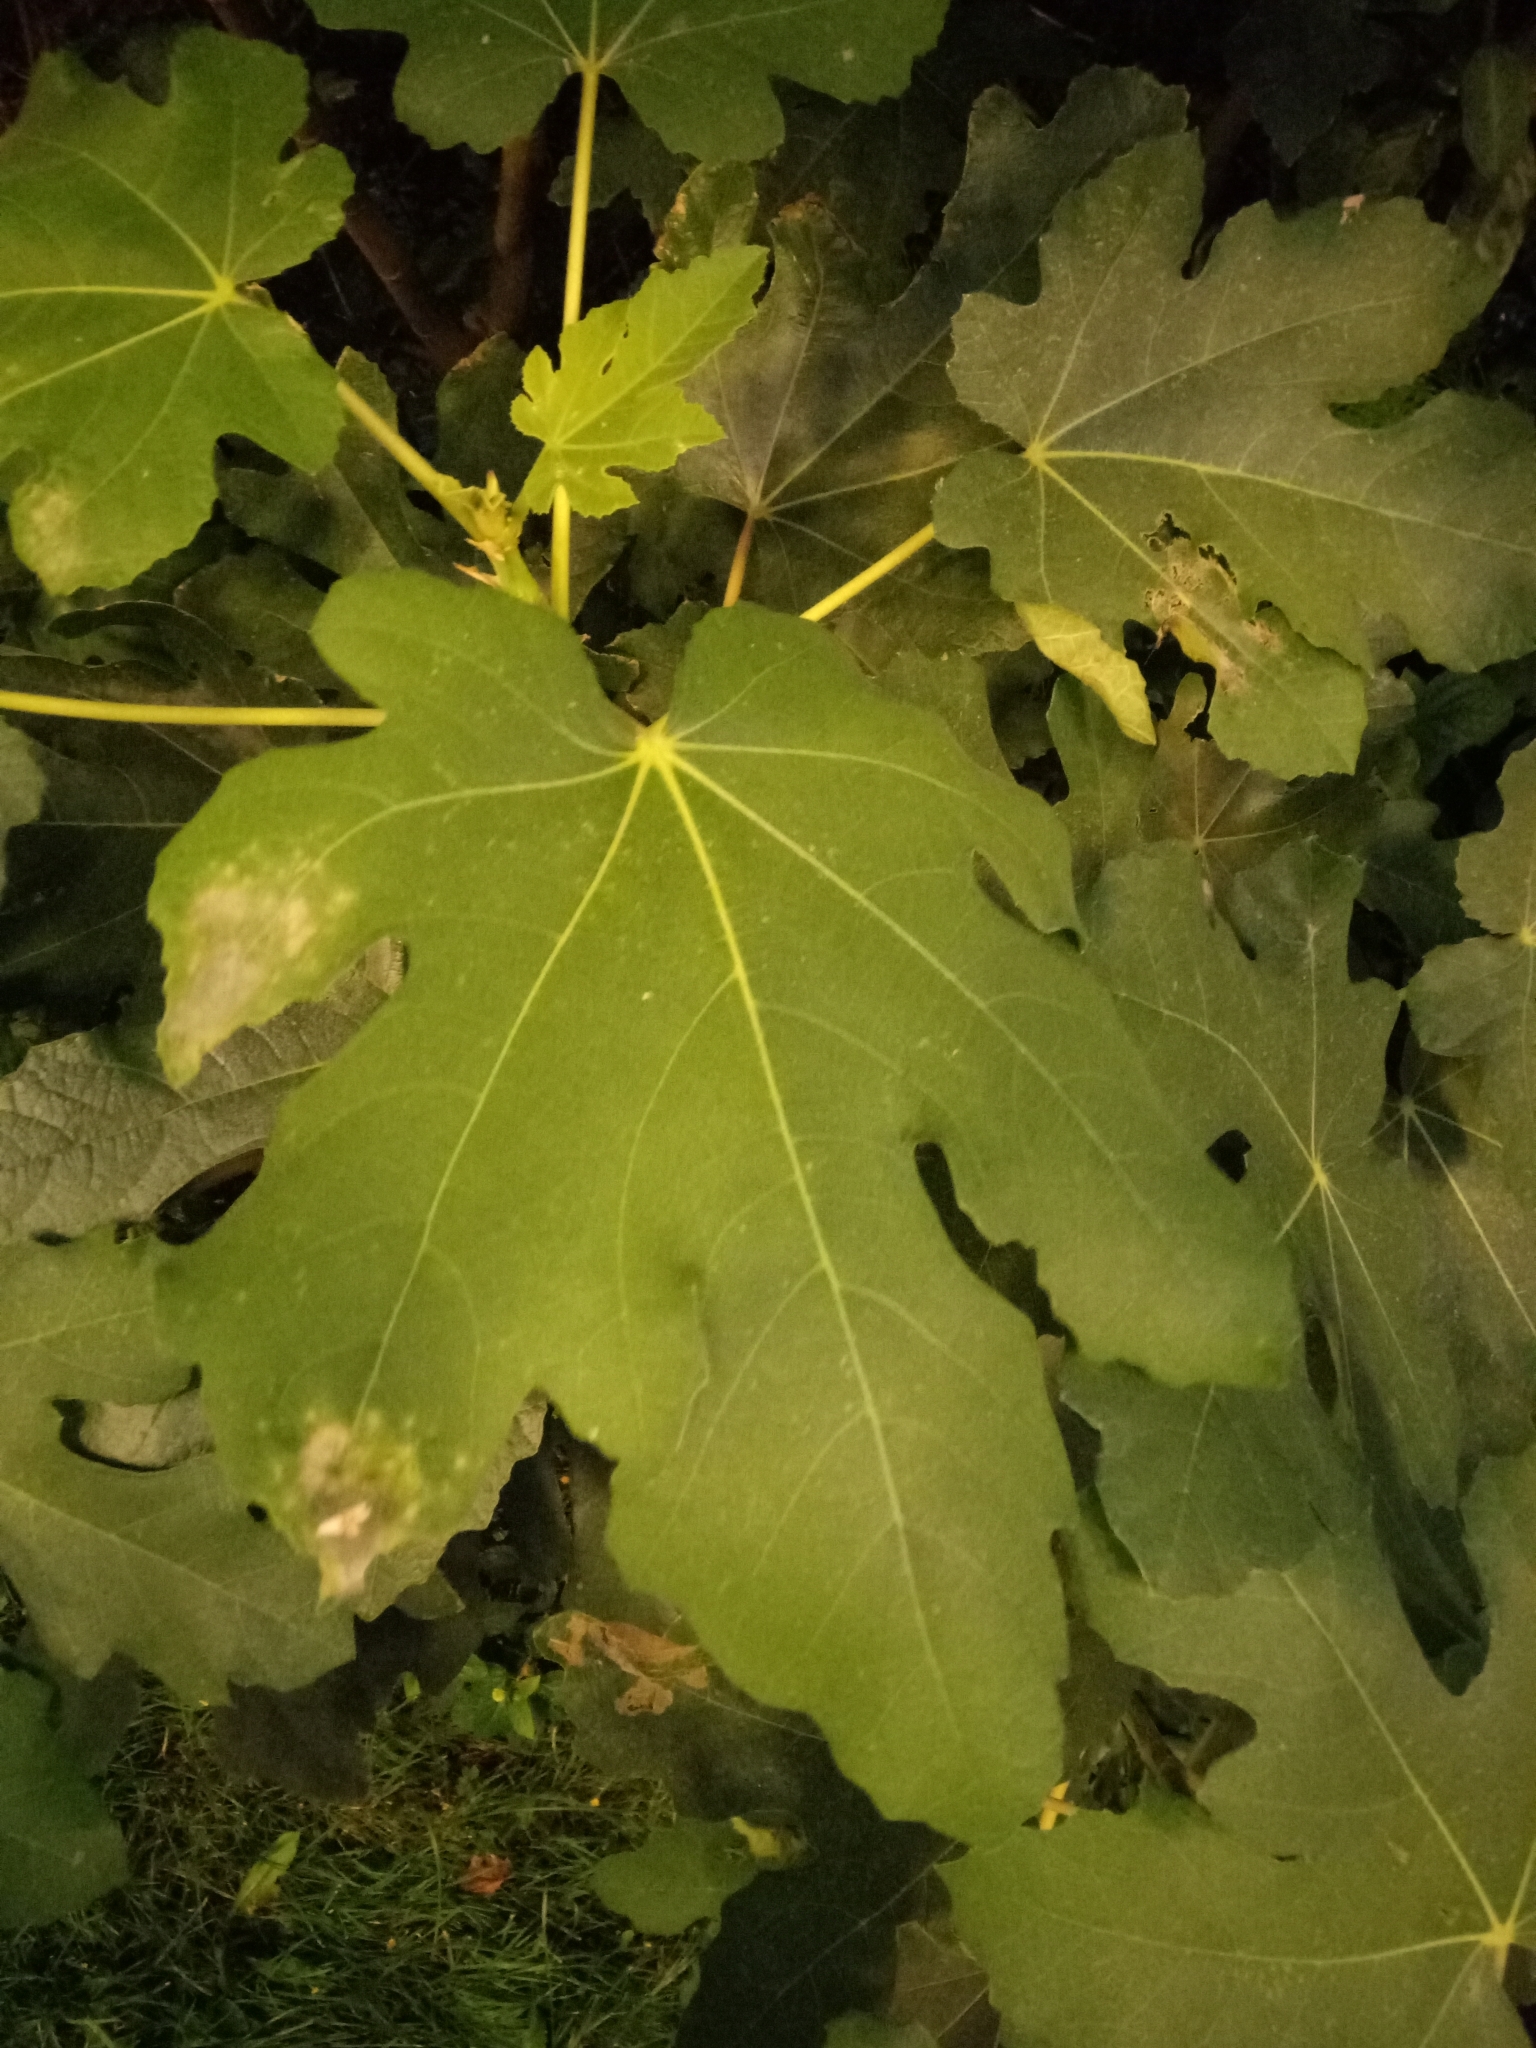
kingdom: Plantae
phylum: Tracheophyta
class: Magnoliopsida
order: Rosales
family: Moraceae
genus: Ficus
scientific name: Ficus carica
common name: Fig
